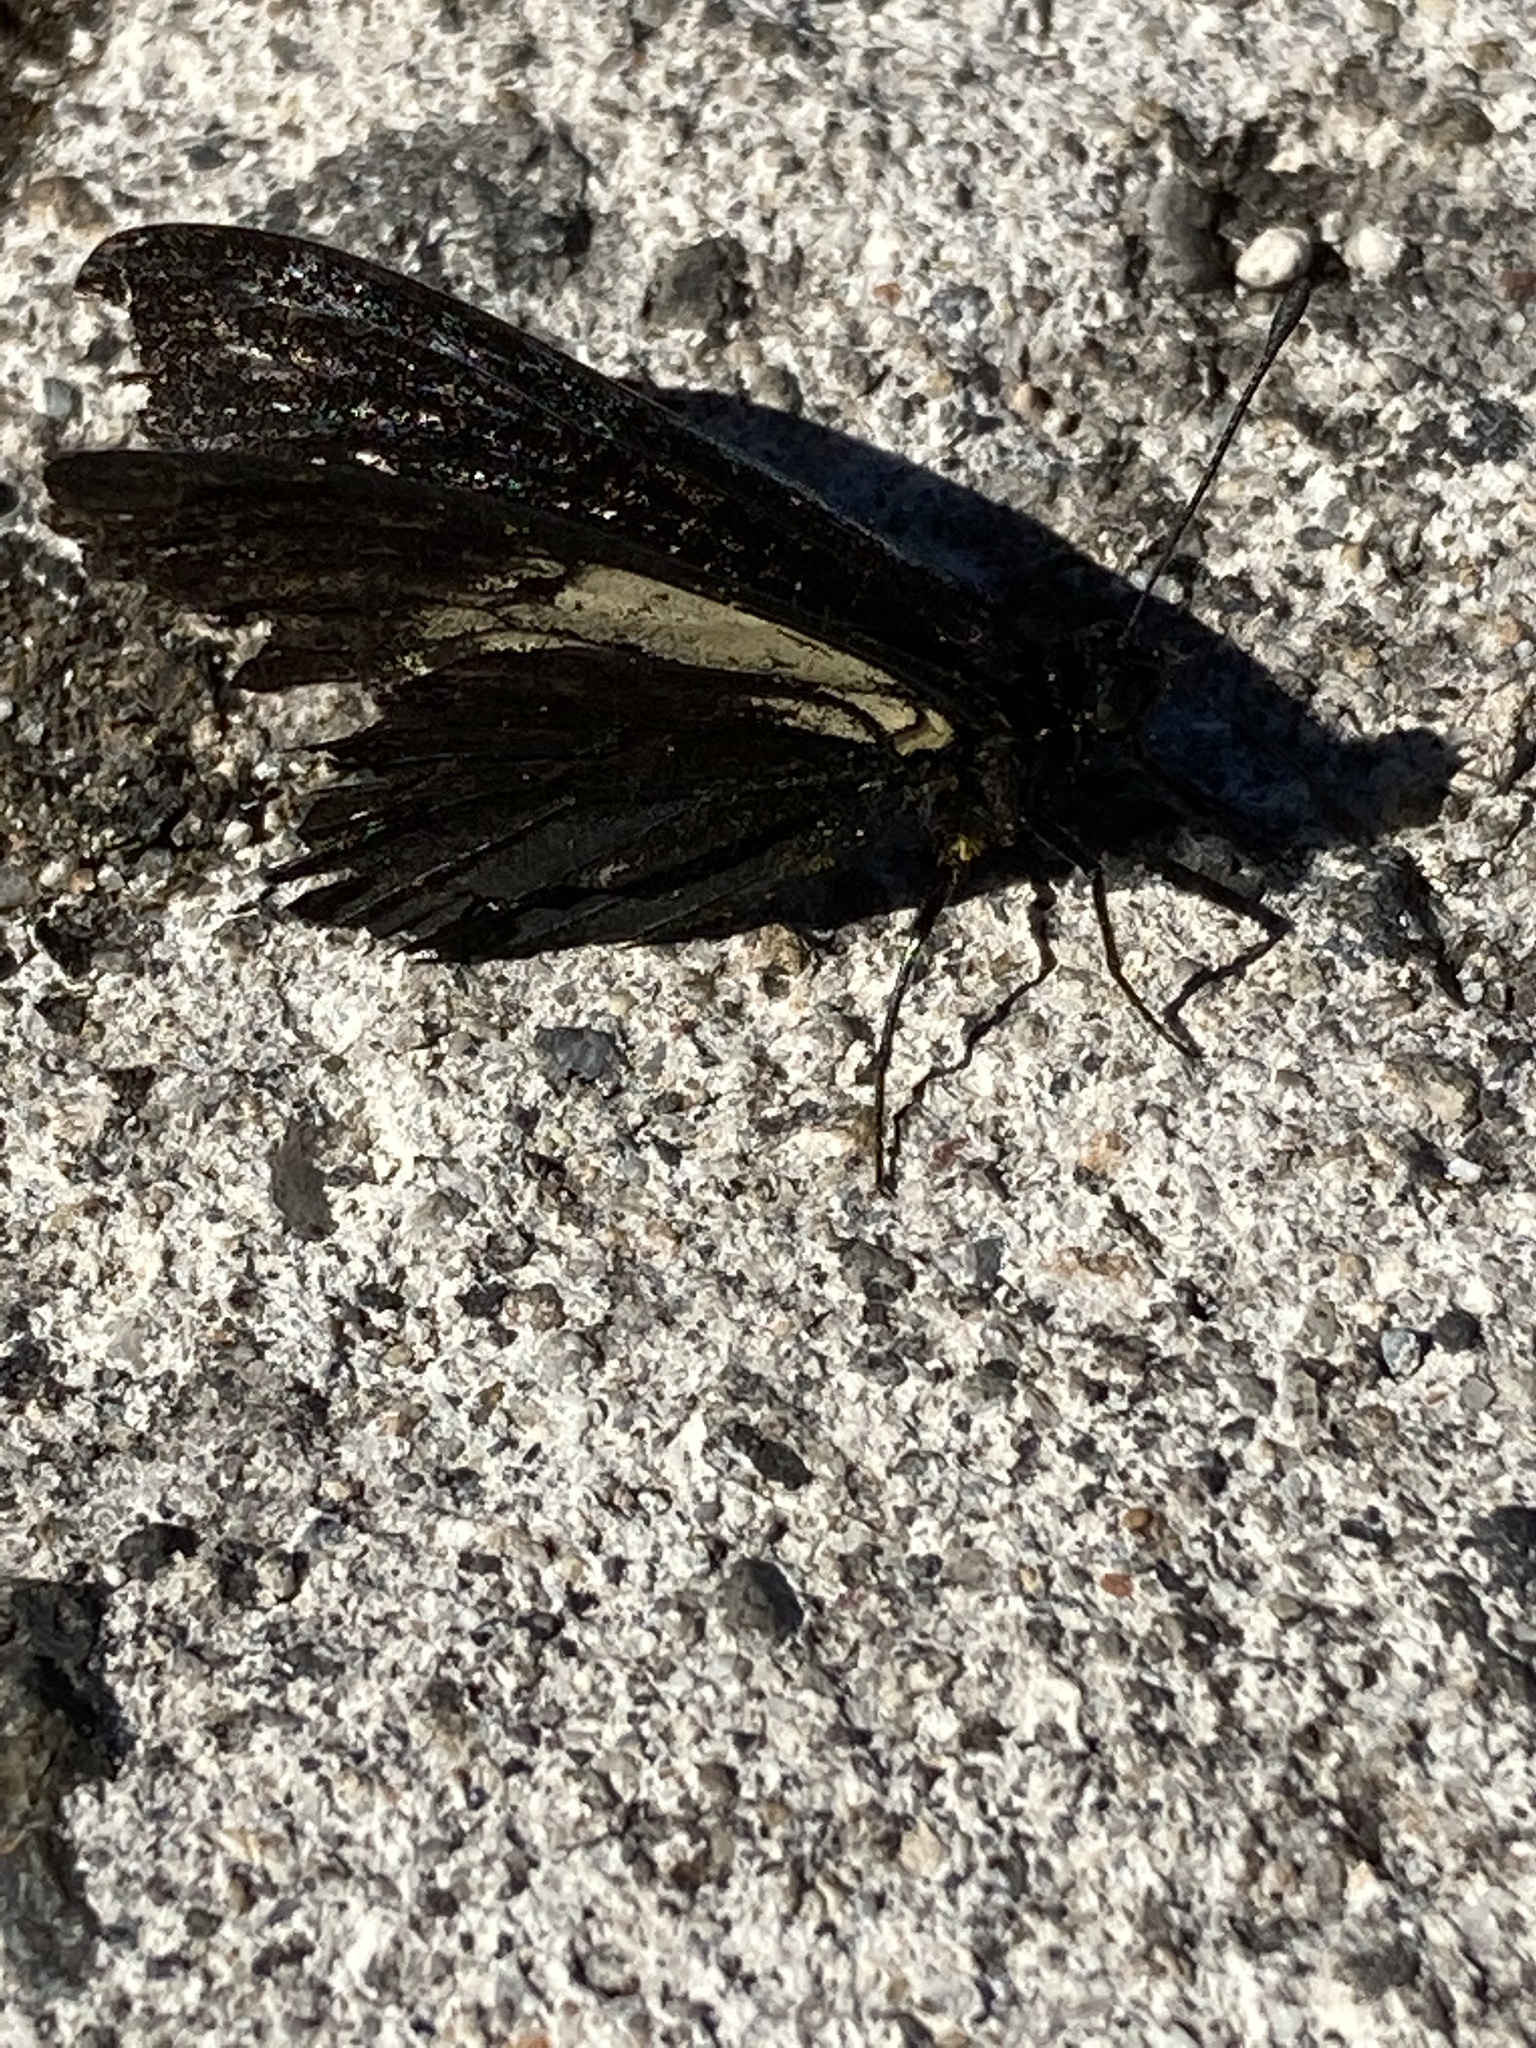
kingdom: Animalia
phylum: Arthropoda
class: Insecta
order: Lepidoptera
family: Nymphalidae
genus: Acraea
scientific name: Acraea Altinote ozomene
